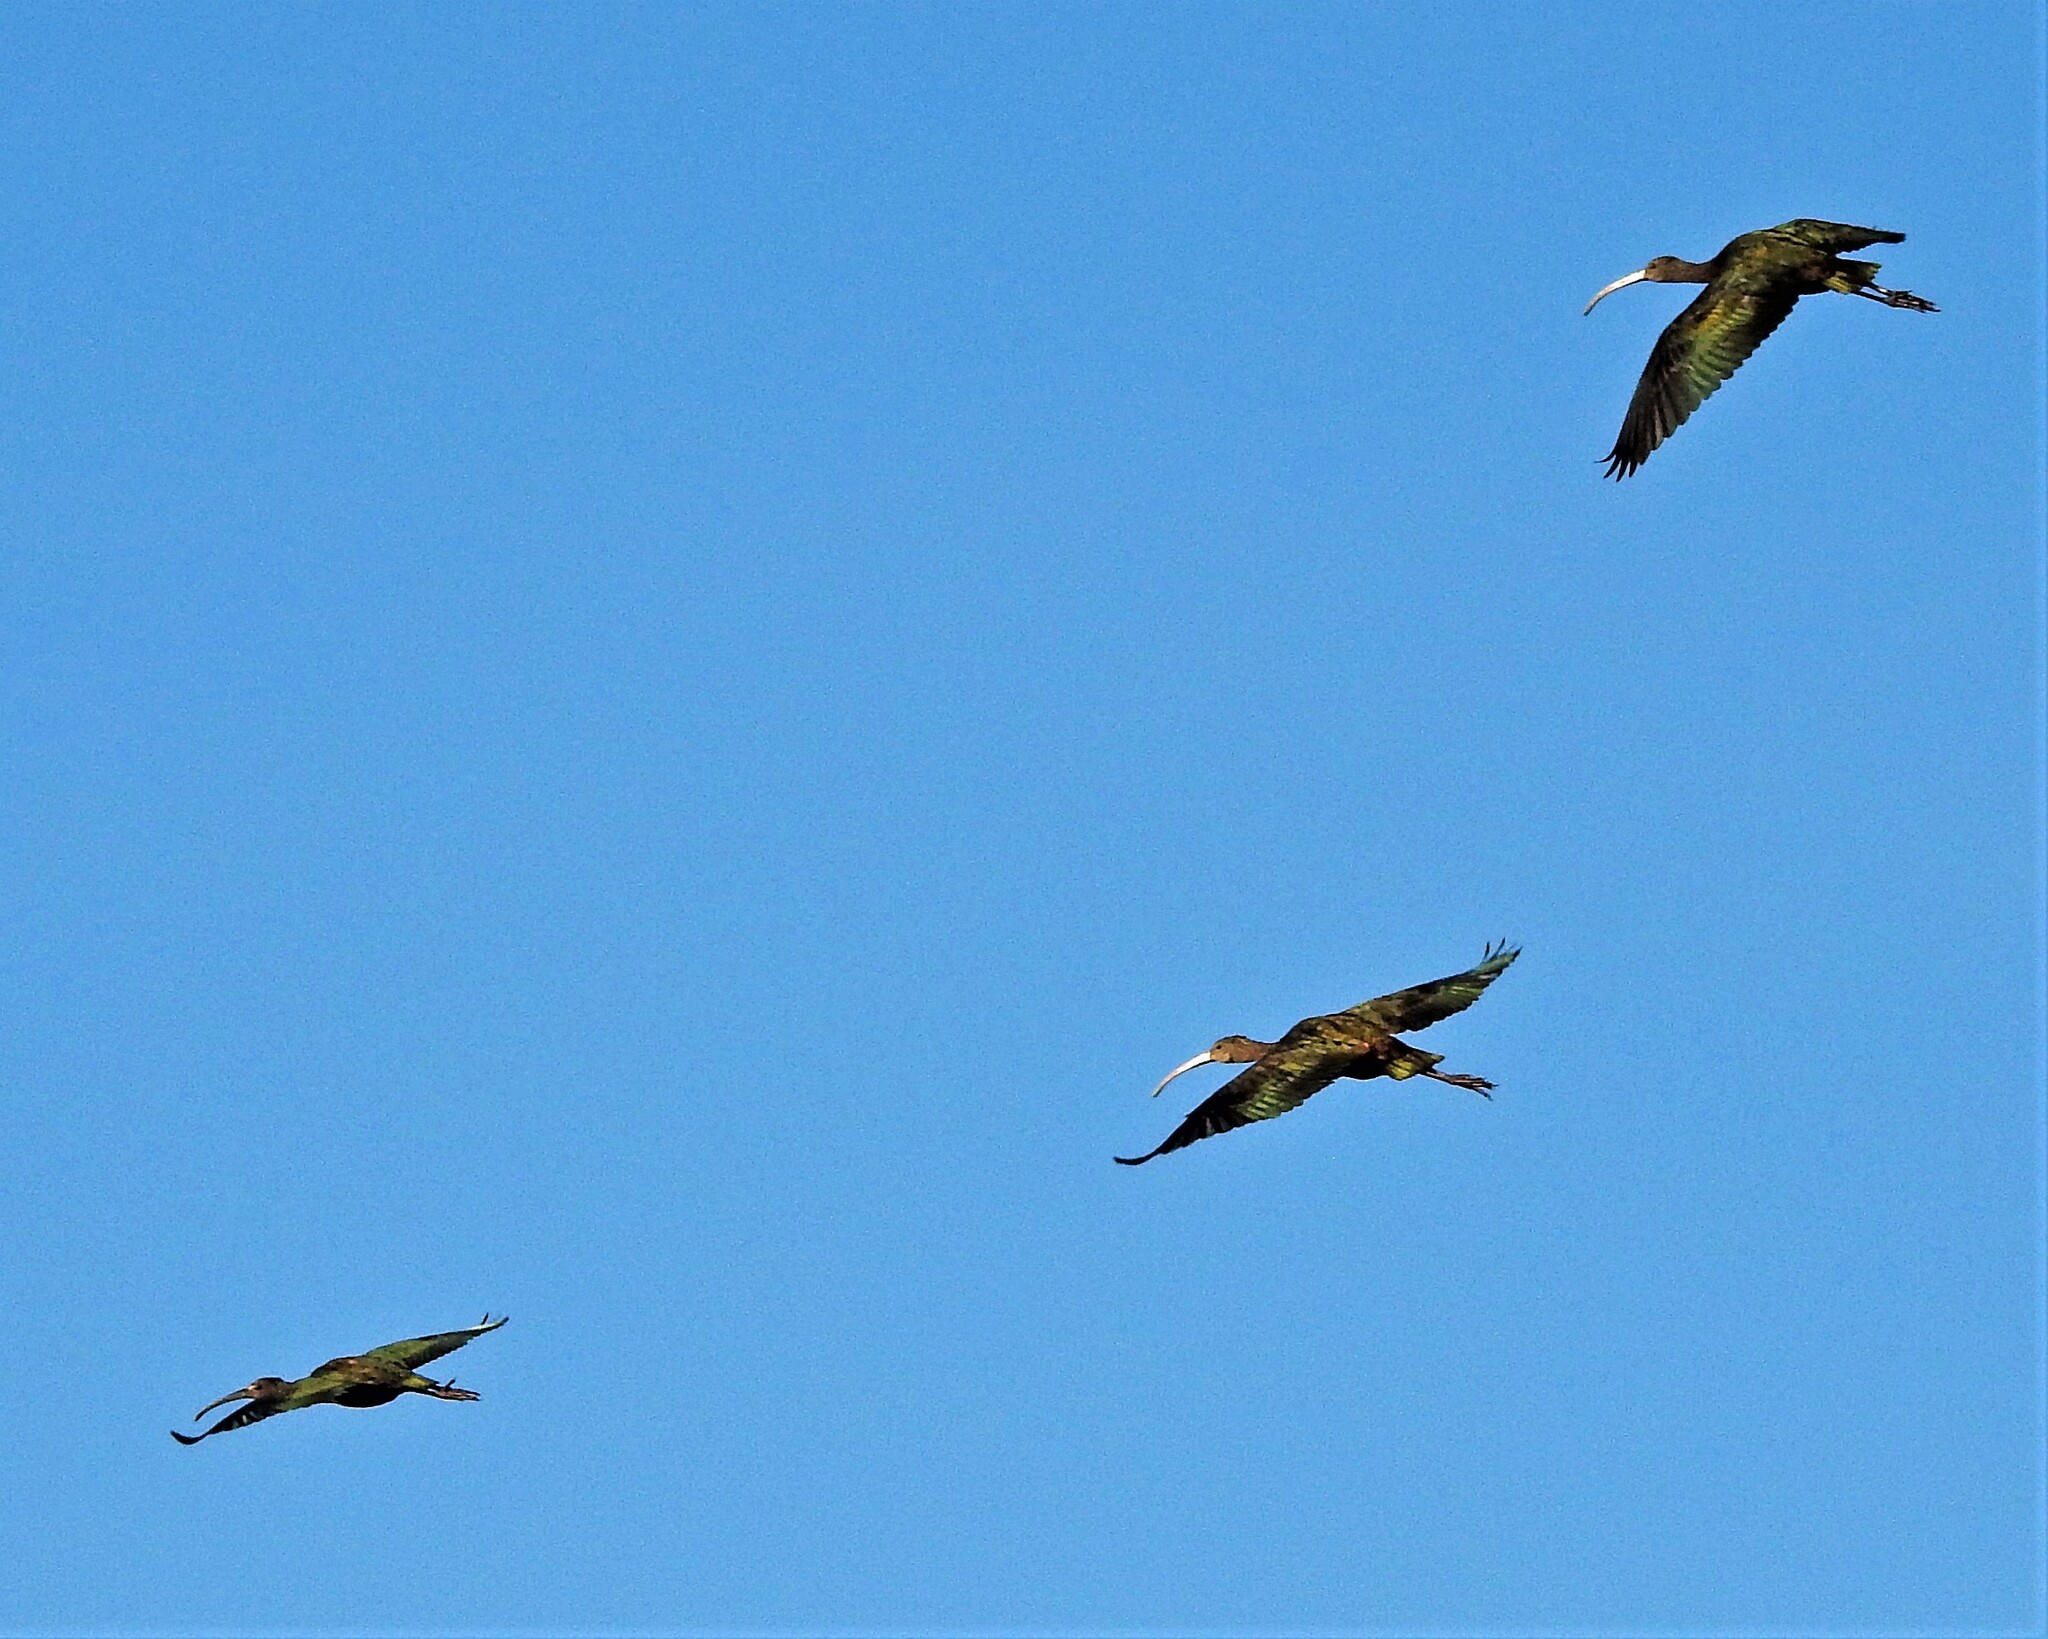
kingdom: Animalia
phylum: Chordata
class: Aves
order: Pelecaniformes
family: Threskiornithidae
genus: Plegadis
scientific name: Plegadis chihi
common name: White-faced ibis
